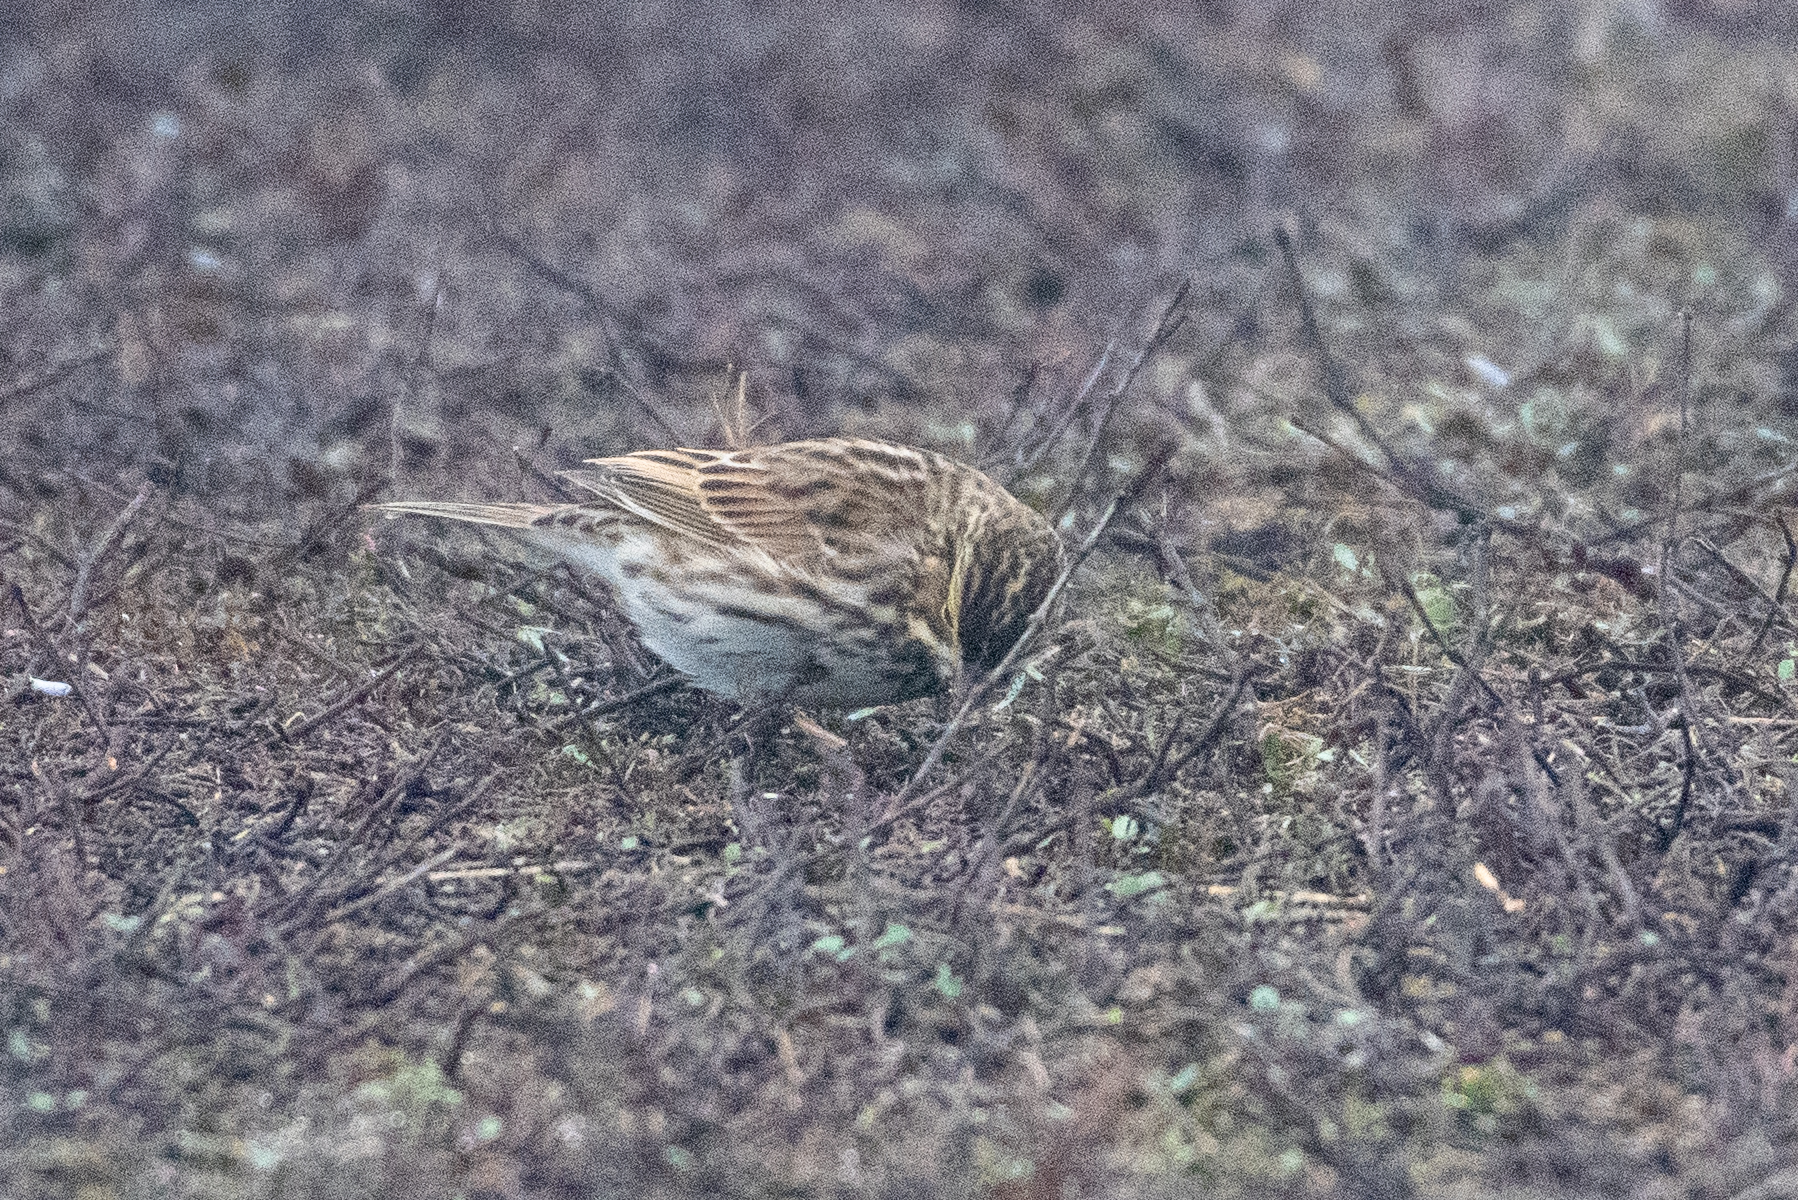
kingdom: Animalia
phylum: Chordata
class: Aves
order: Passeriformes
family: Passerellidae
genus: Passerculus
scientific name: Passerculus sandwichensis
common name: Savannah sparrow
